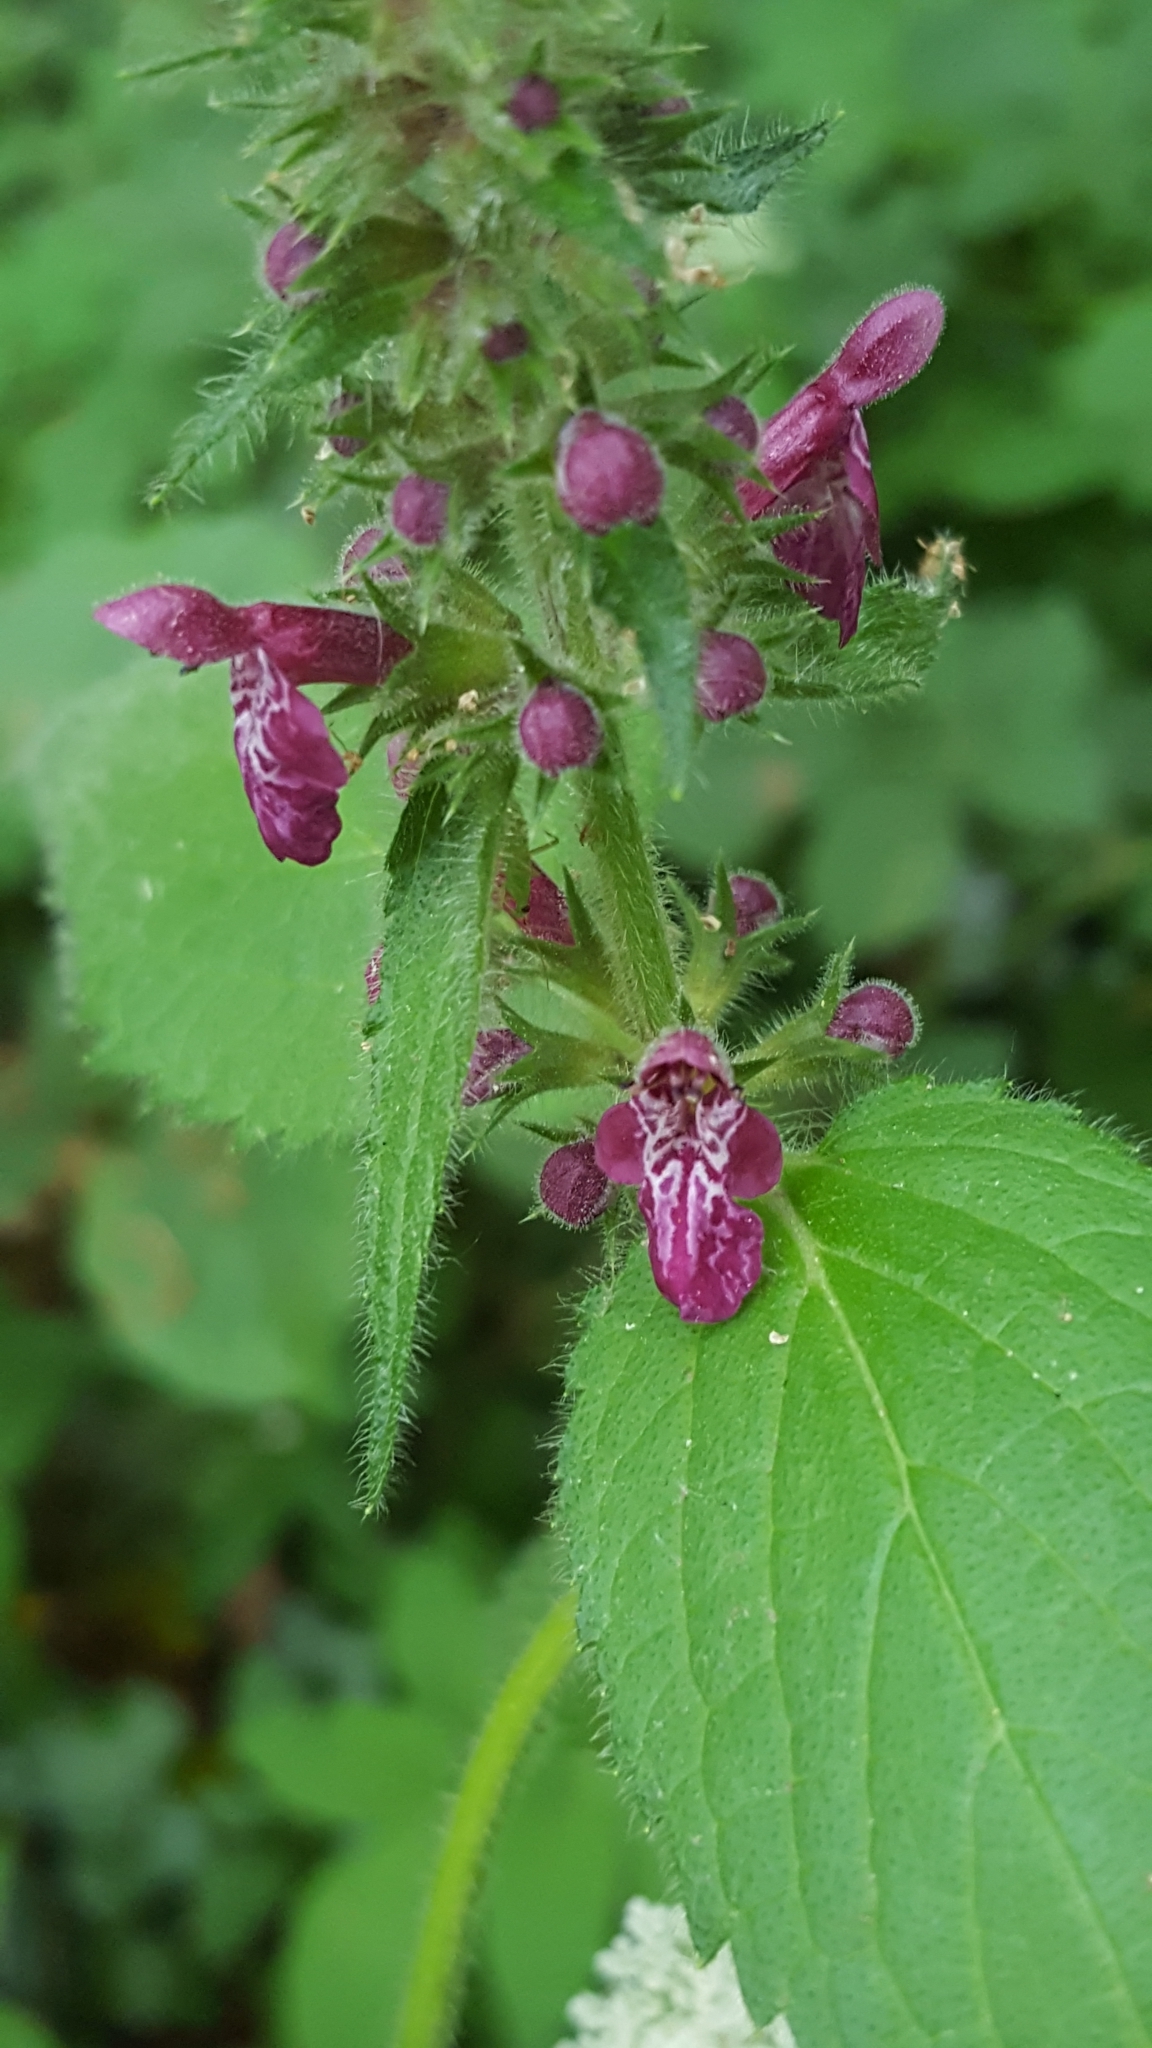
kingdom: Plantae
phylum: Tracheophyta
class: Magnoliopsida
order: Lamiales
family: Lamiaceae
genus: Stachys
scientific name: Stachys sylvatica
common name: Hedge woundwort
